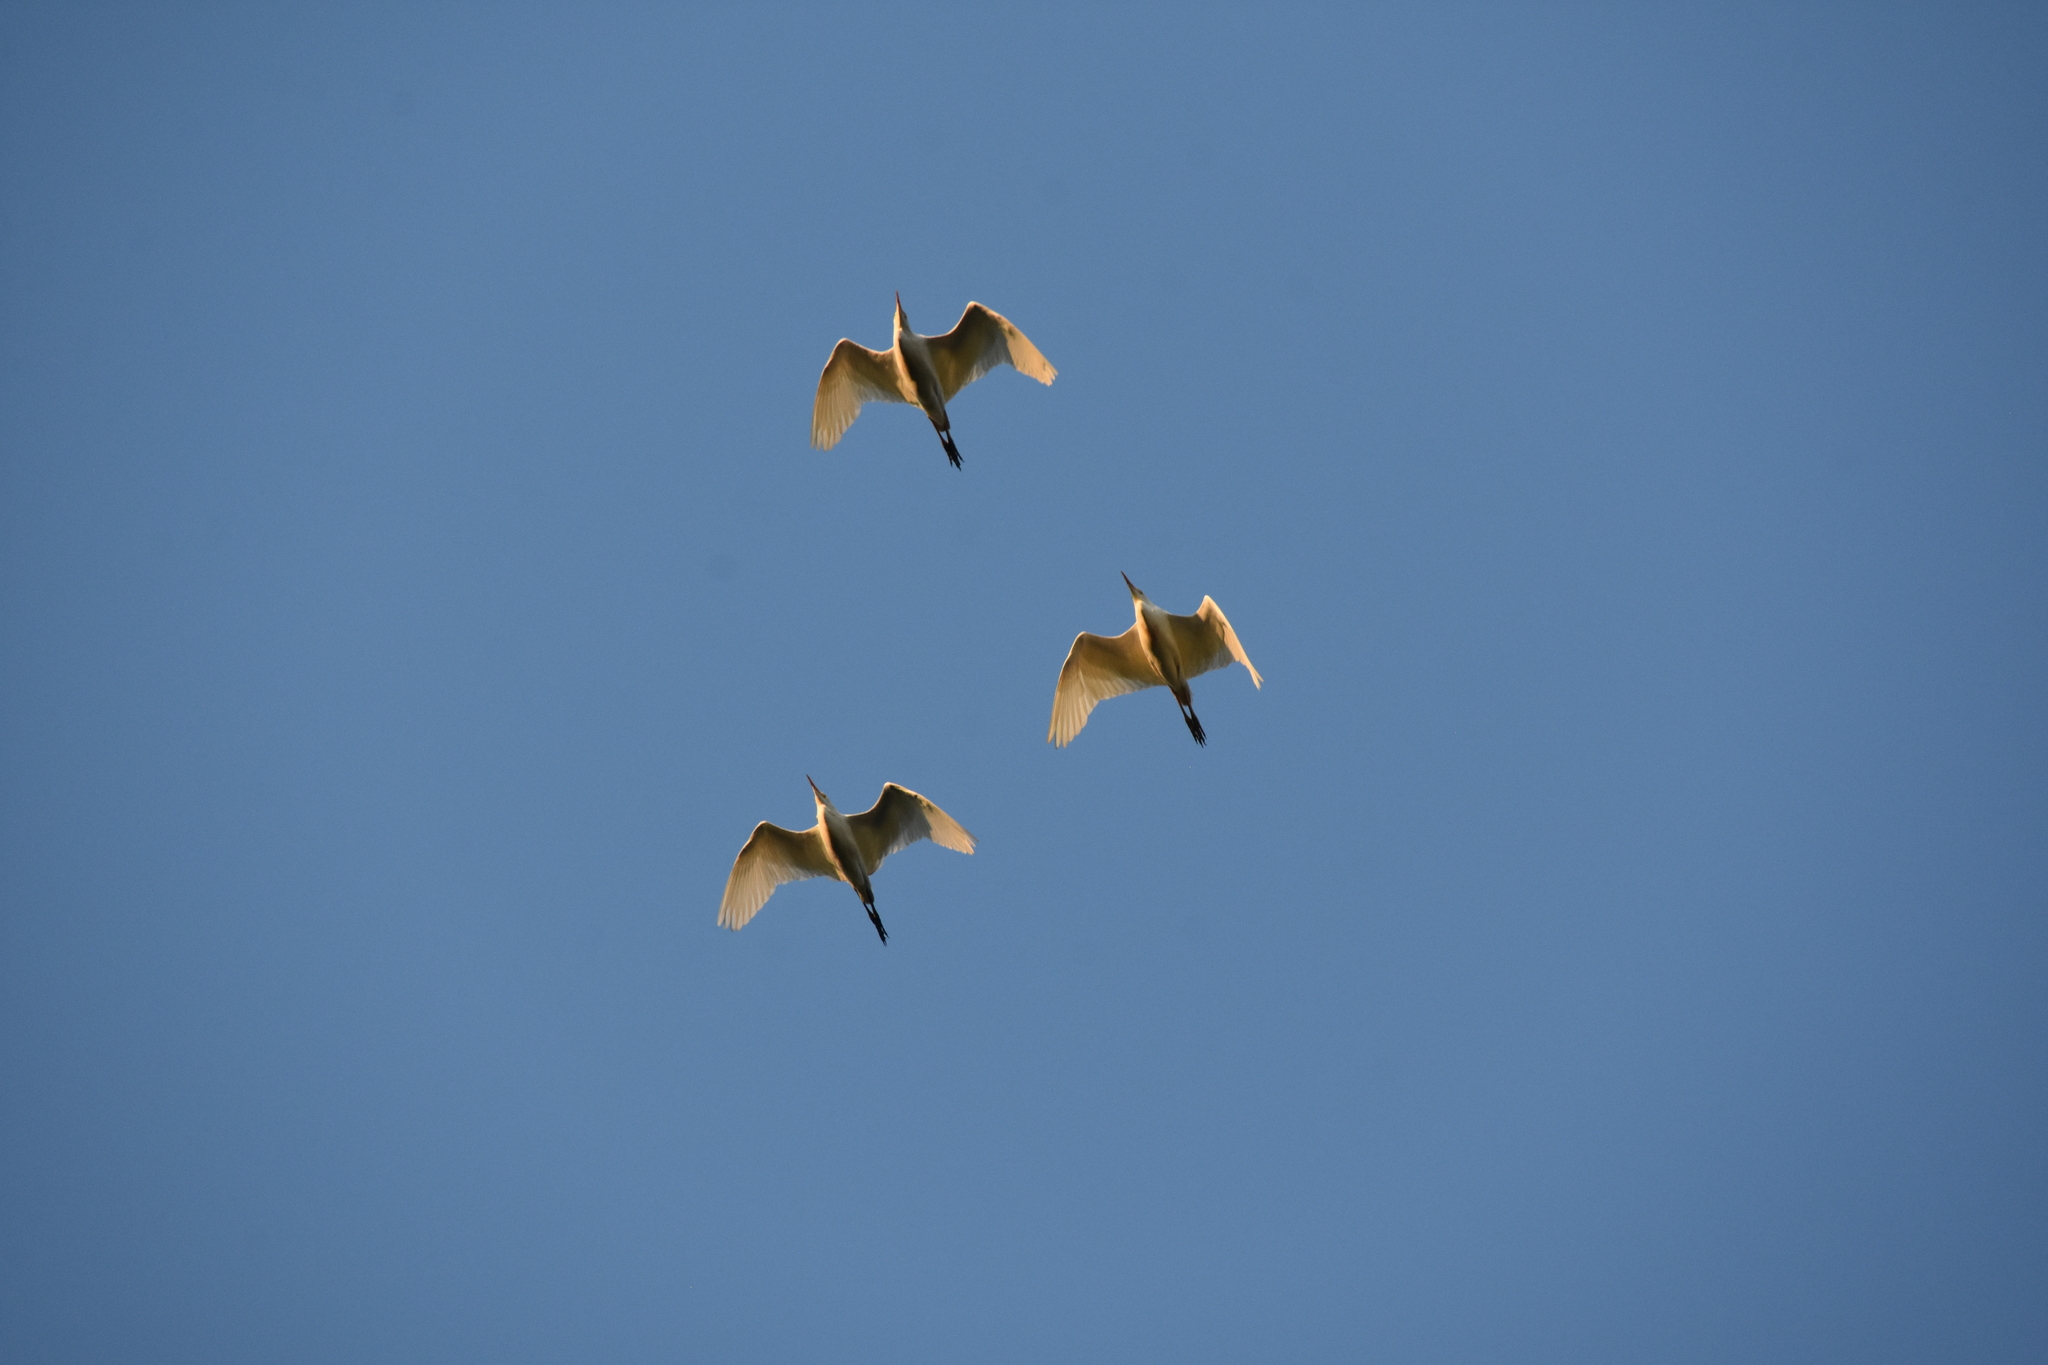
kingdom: Animalia
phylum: Chordata
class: Aves
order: Pelecaniformes
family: Ardeidae
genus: Bubulcus
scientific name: Bubulcus ibis
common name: Cattle egret
